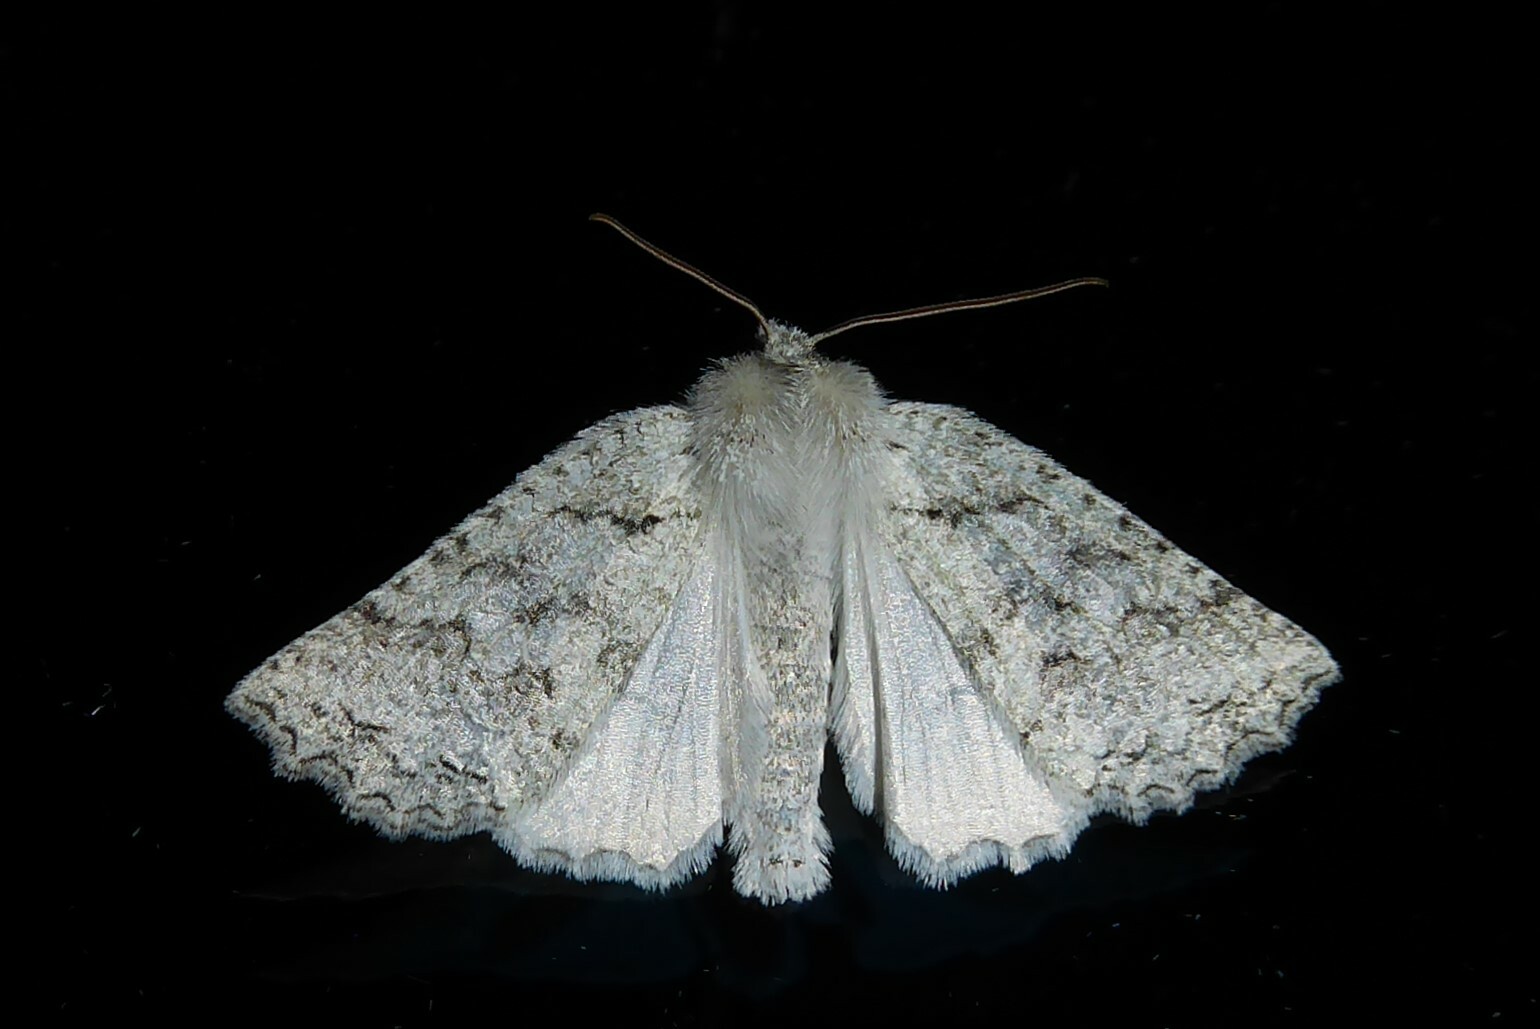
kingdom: Animalia
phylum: Arthropoda
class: Insecta
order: Lepidoptera
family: Geometridae
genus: Declana
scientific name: Declana niveata
